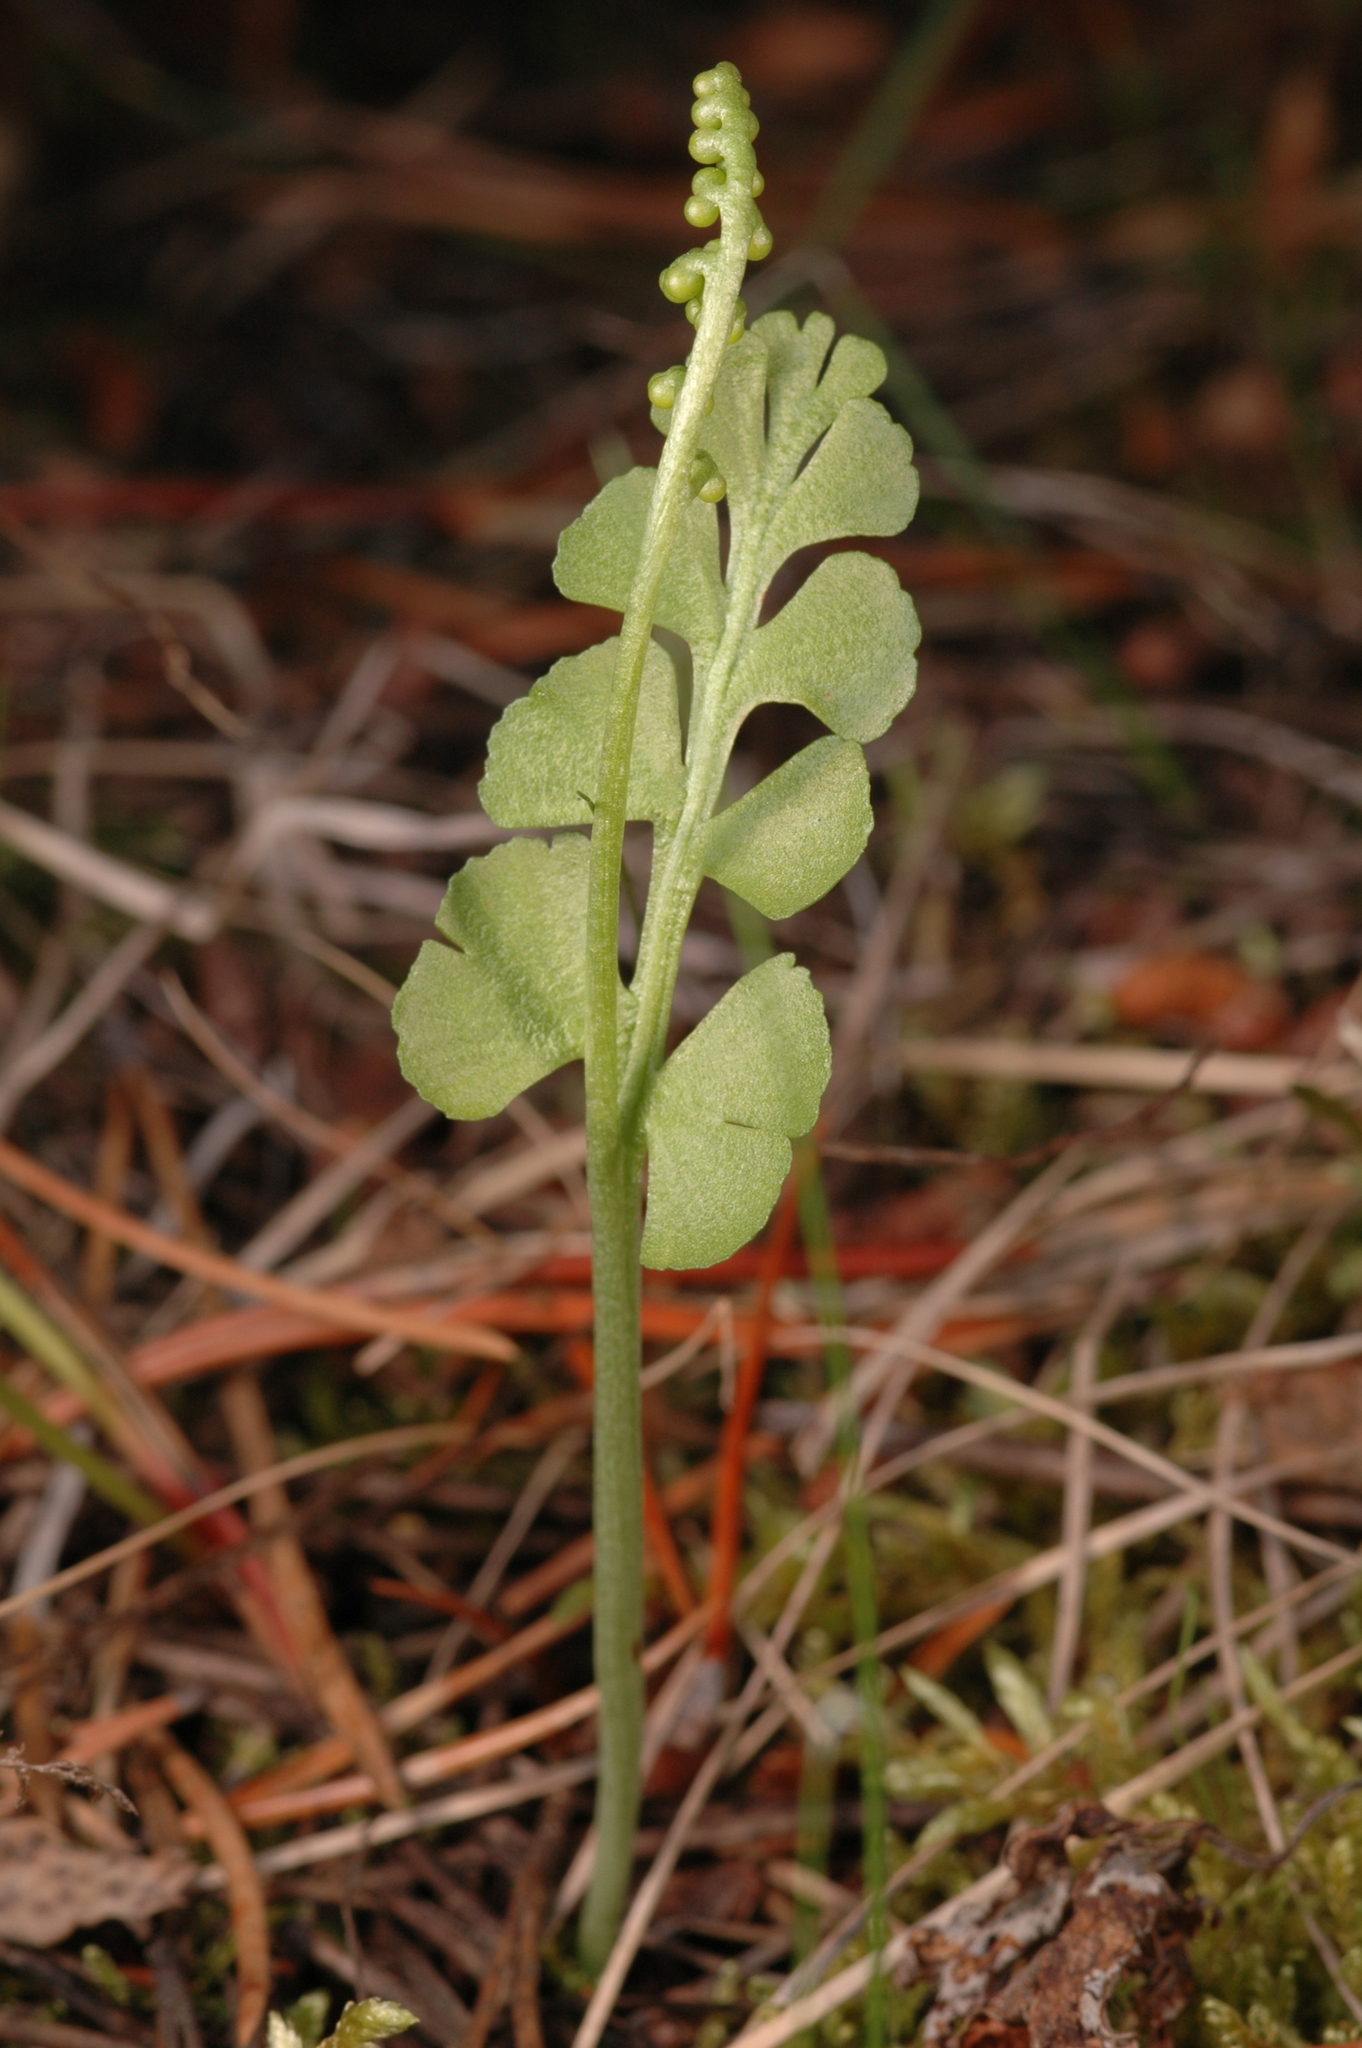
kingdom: Plantae
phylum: Tracheophyta
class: Polypodiopsida
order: Ophioglossales
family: Ophioglossaceae
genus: Botrychium
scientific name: Botrychium neolunaria
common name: New world moonwort
